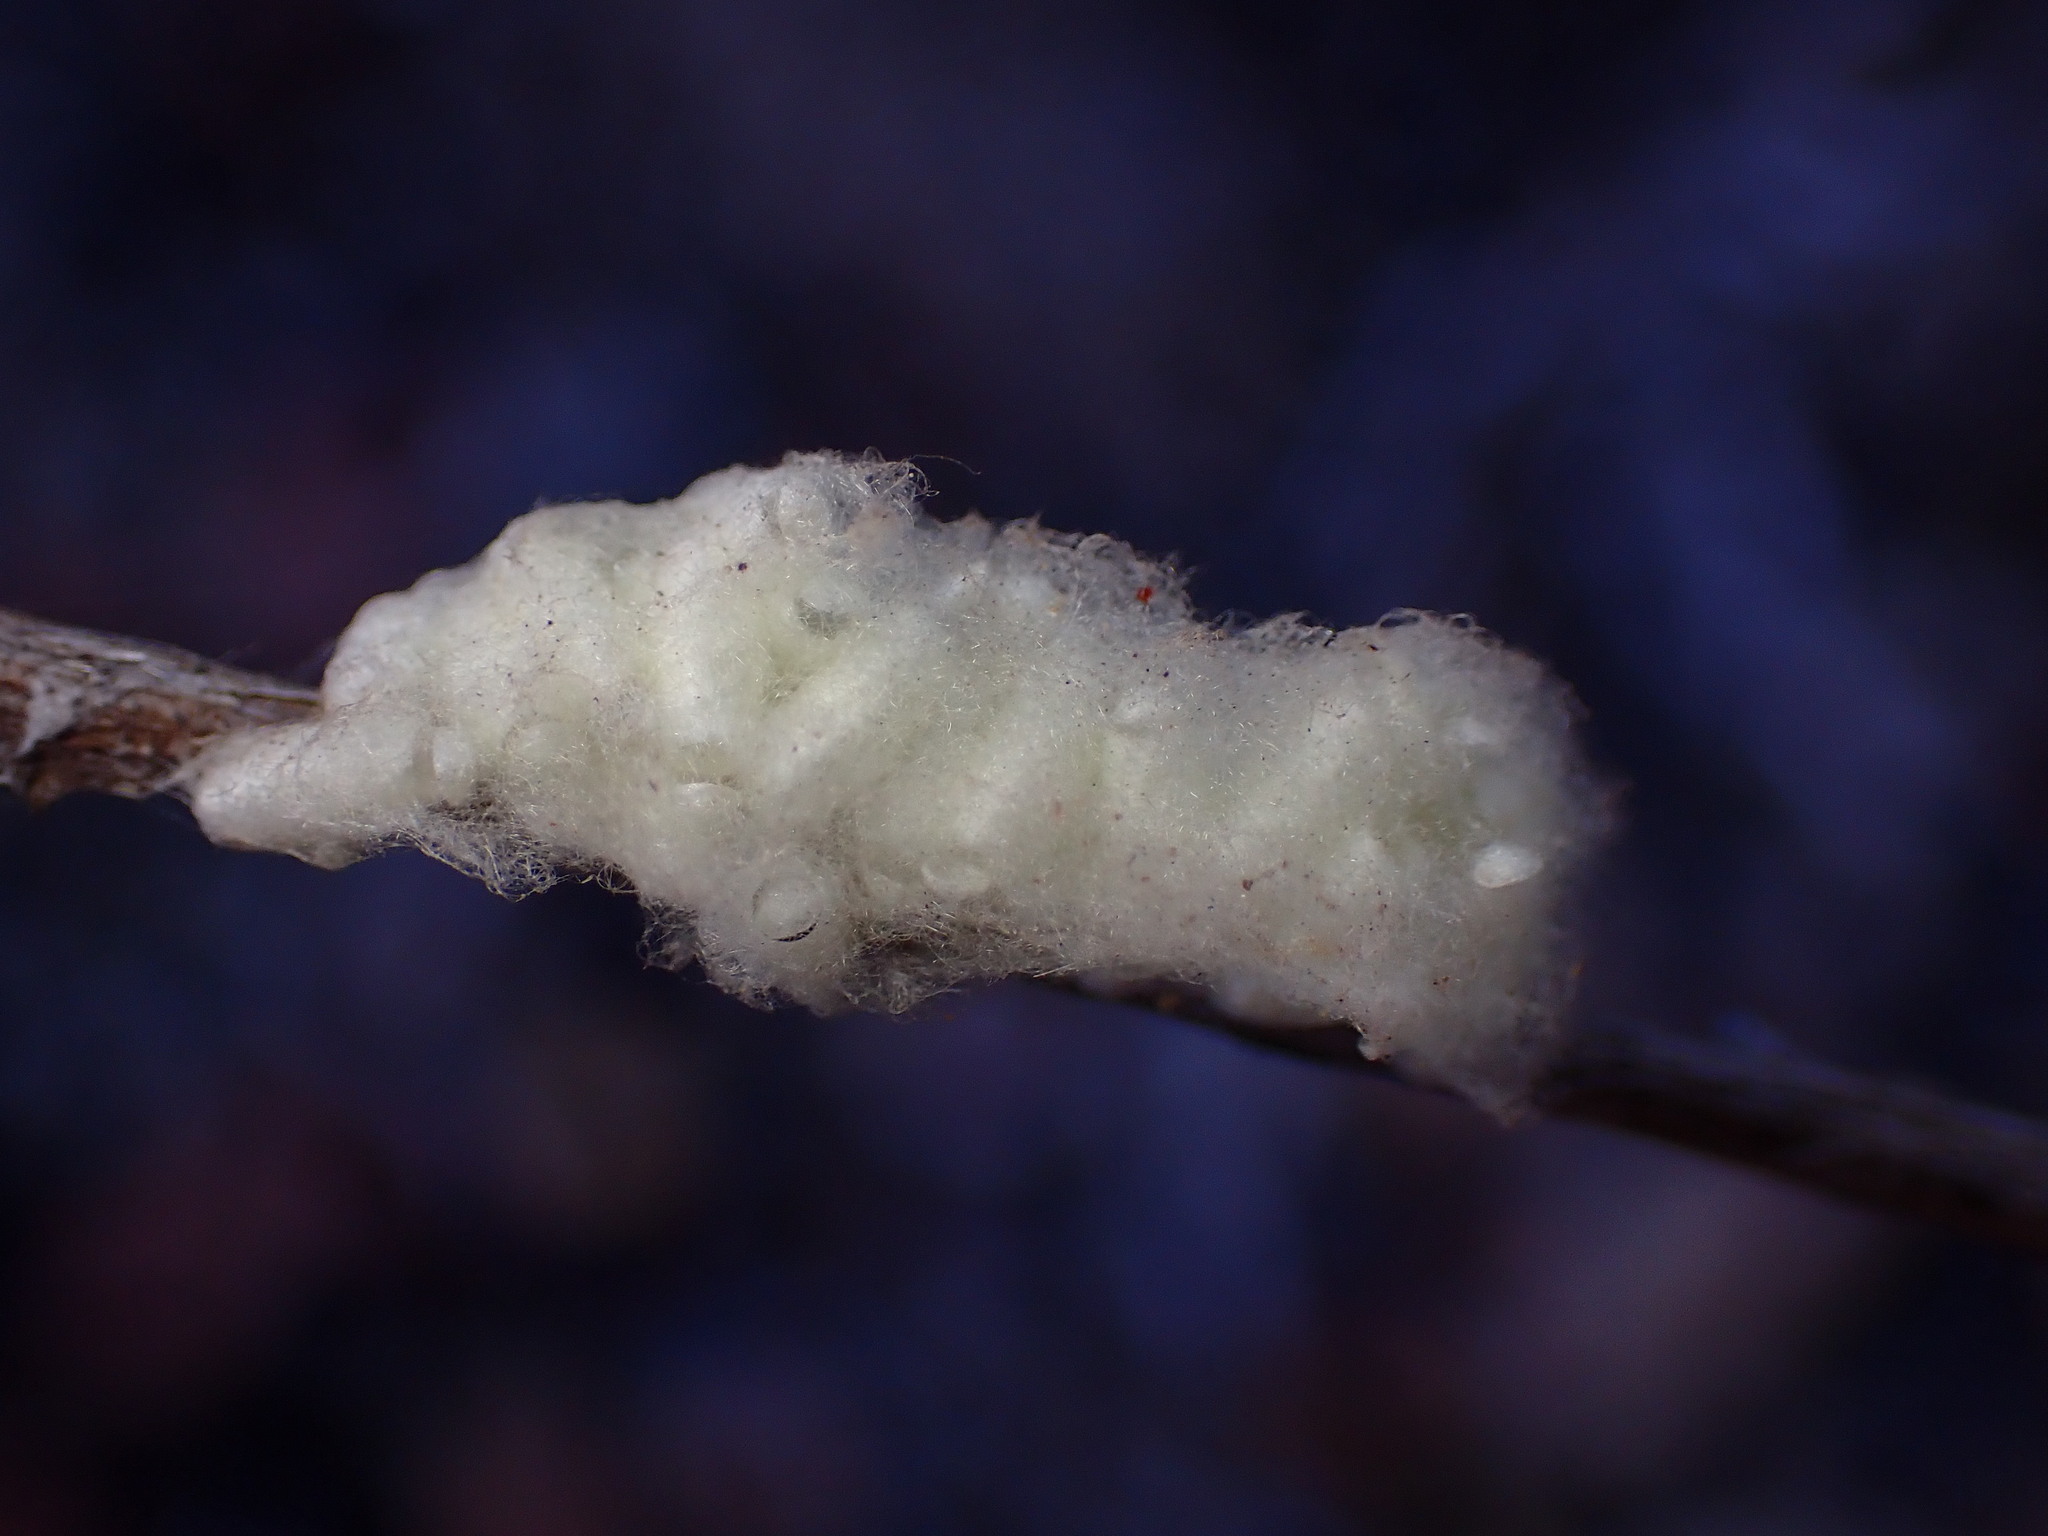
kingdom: Animalia
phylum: Arthropoda
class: Insecta
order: Hymenoptera
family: Braconidae
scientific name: Braconidae
